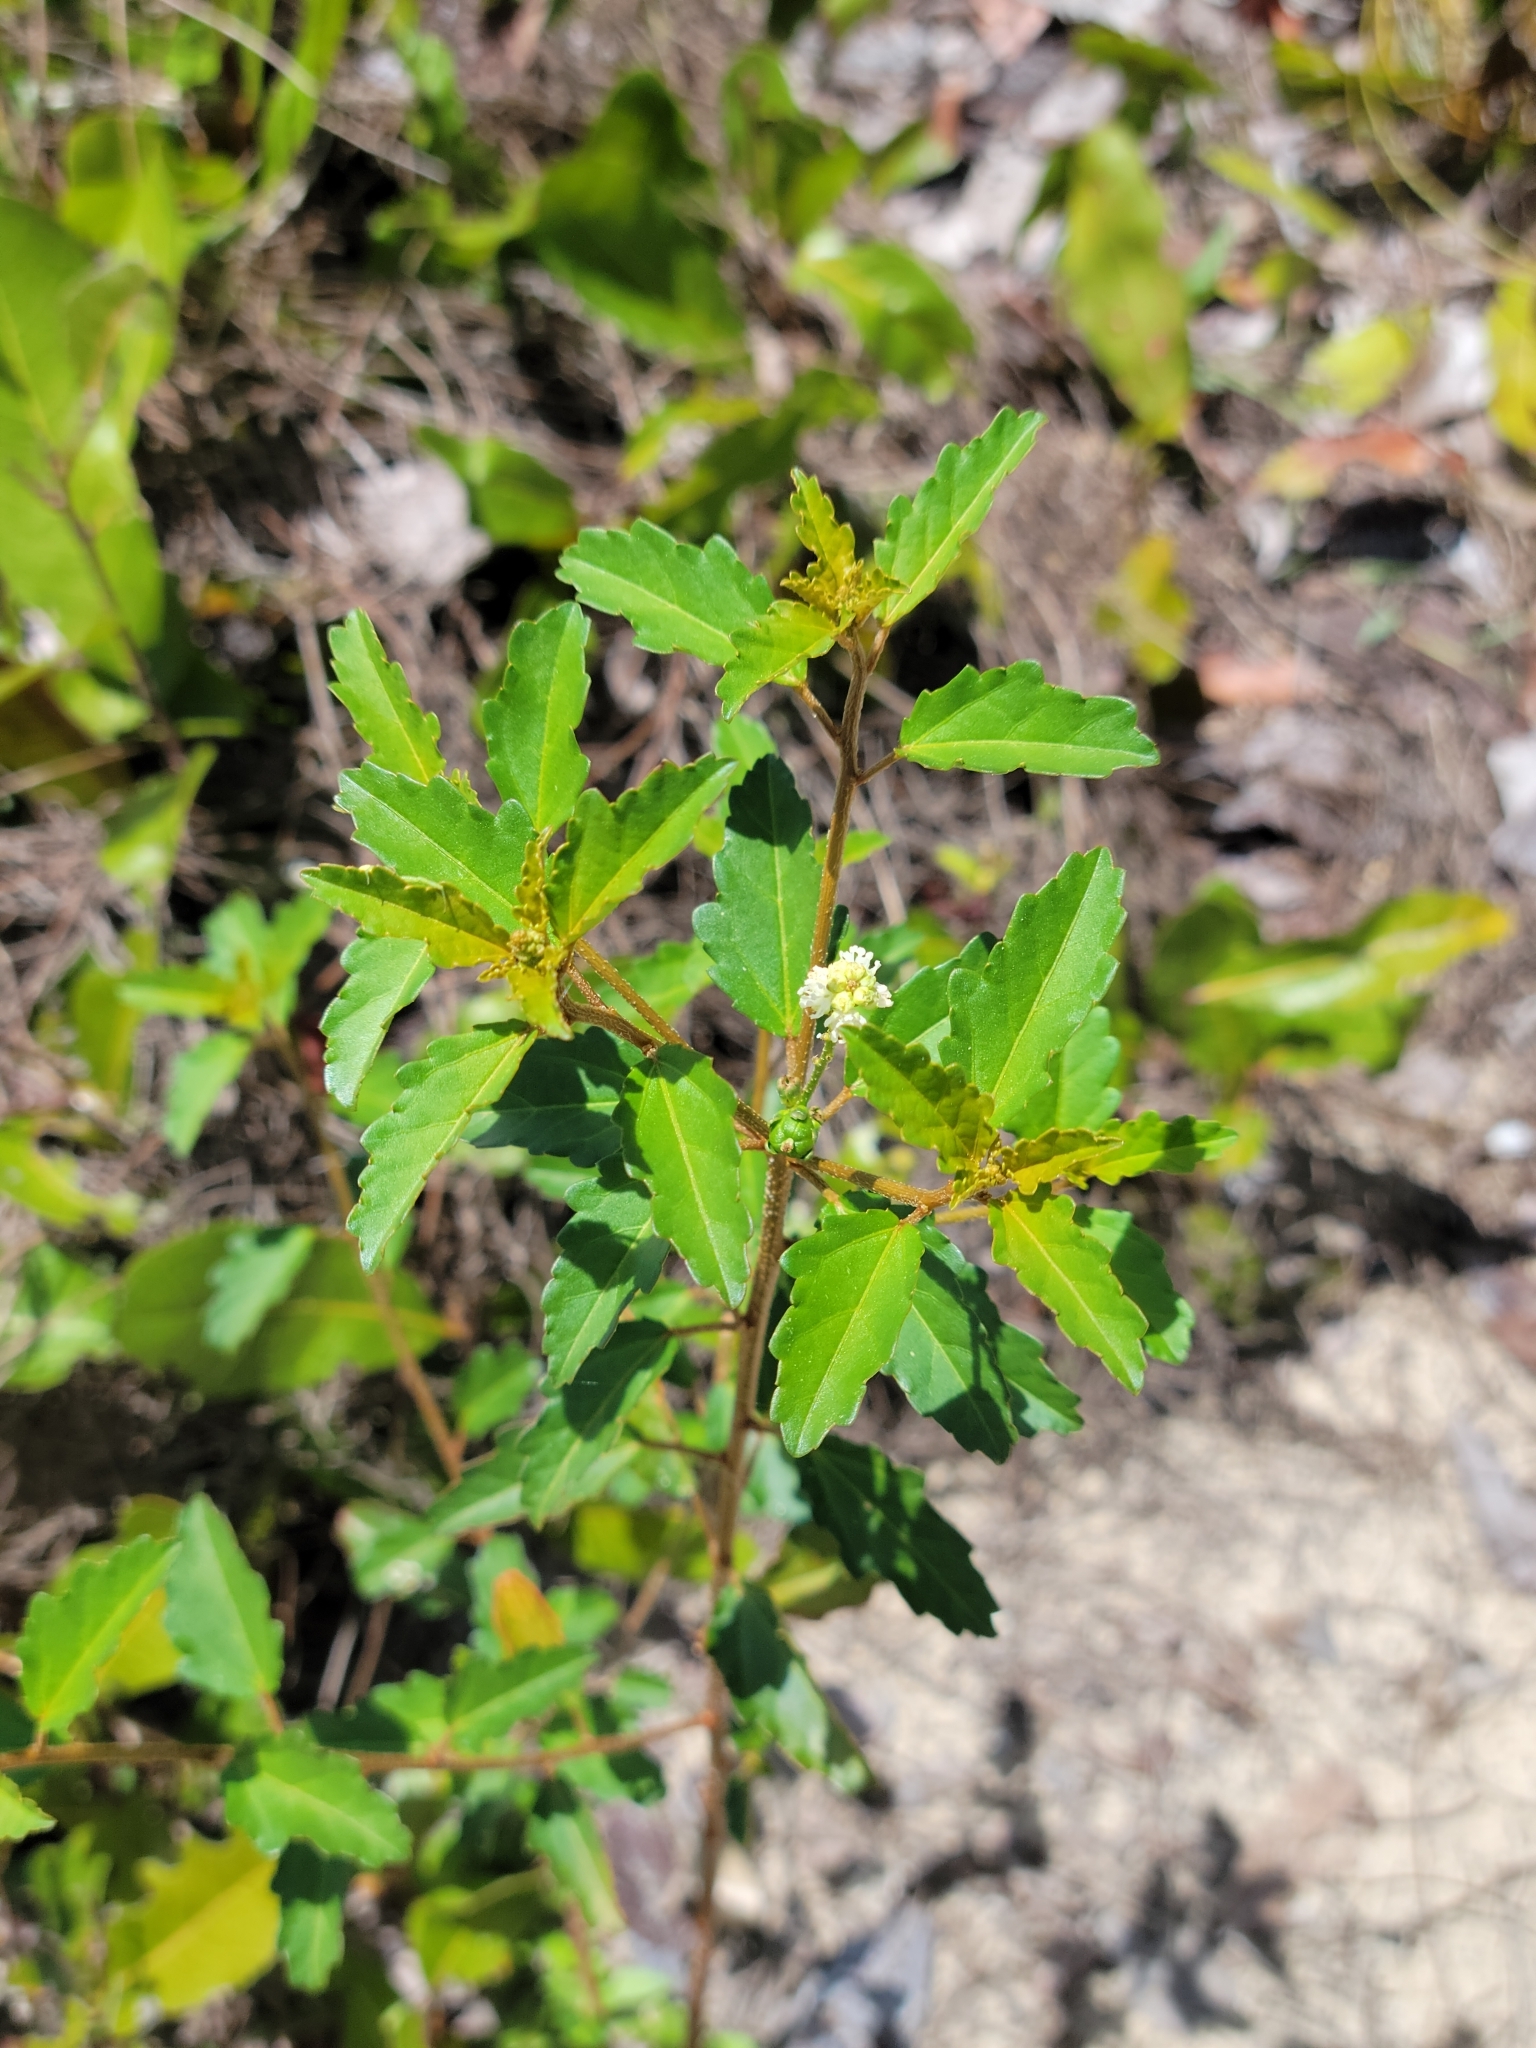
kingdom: Plantae
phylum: Tracheophyta
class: Magnoliopsida
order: Malpighiales
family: Euphorbiaceae
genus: Croton
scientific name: Croton glandulosus
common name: Tropic croton
